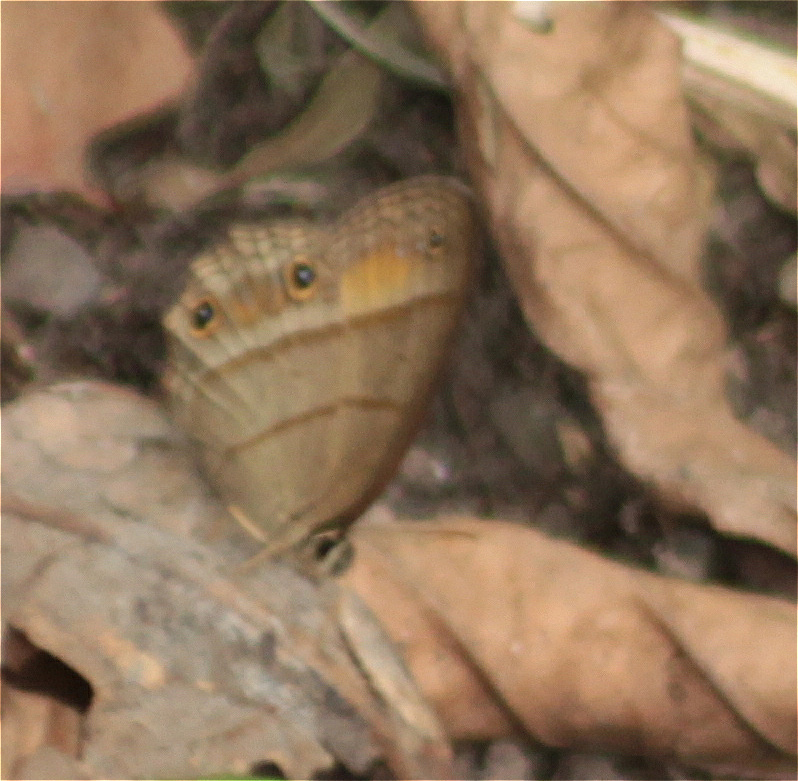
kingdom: Animalia
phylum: Arthropoda
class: Insecta
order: Lepidoptera
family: Nymphalidae
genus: Euptychia
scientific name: Euptychia Cissia pompilia
